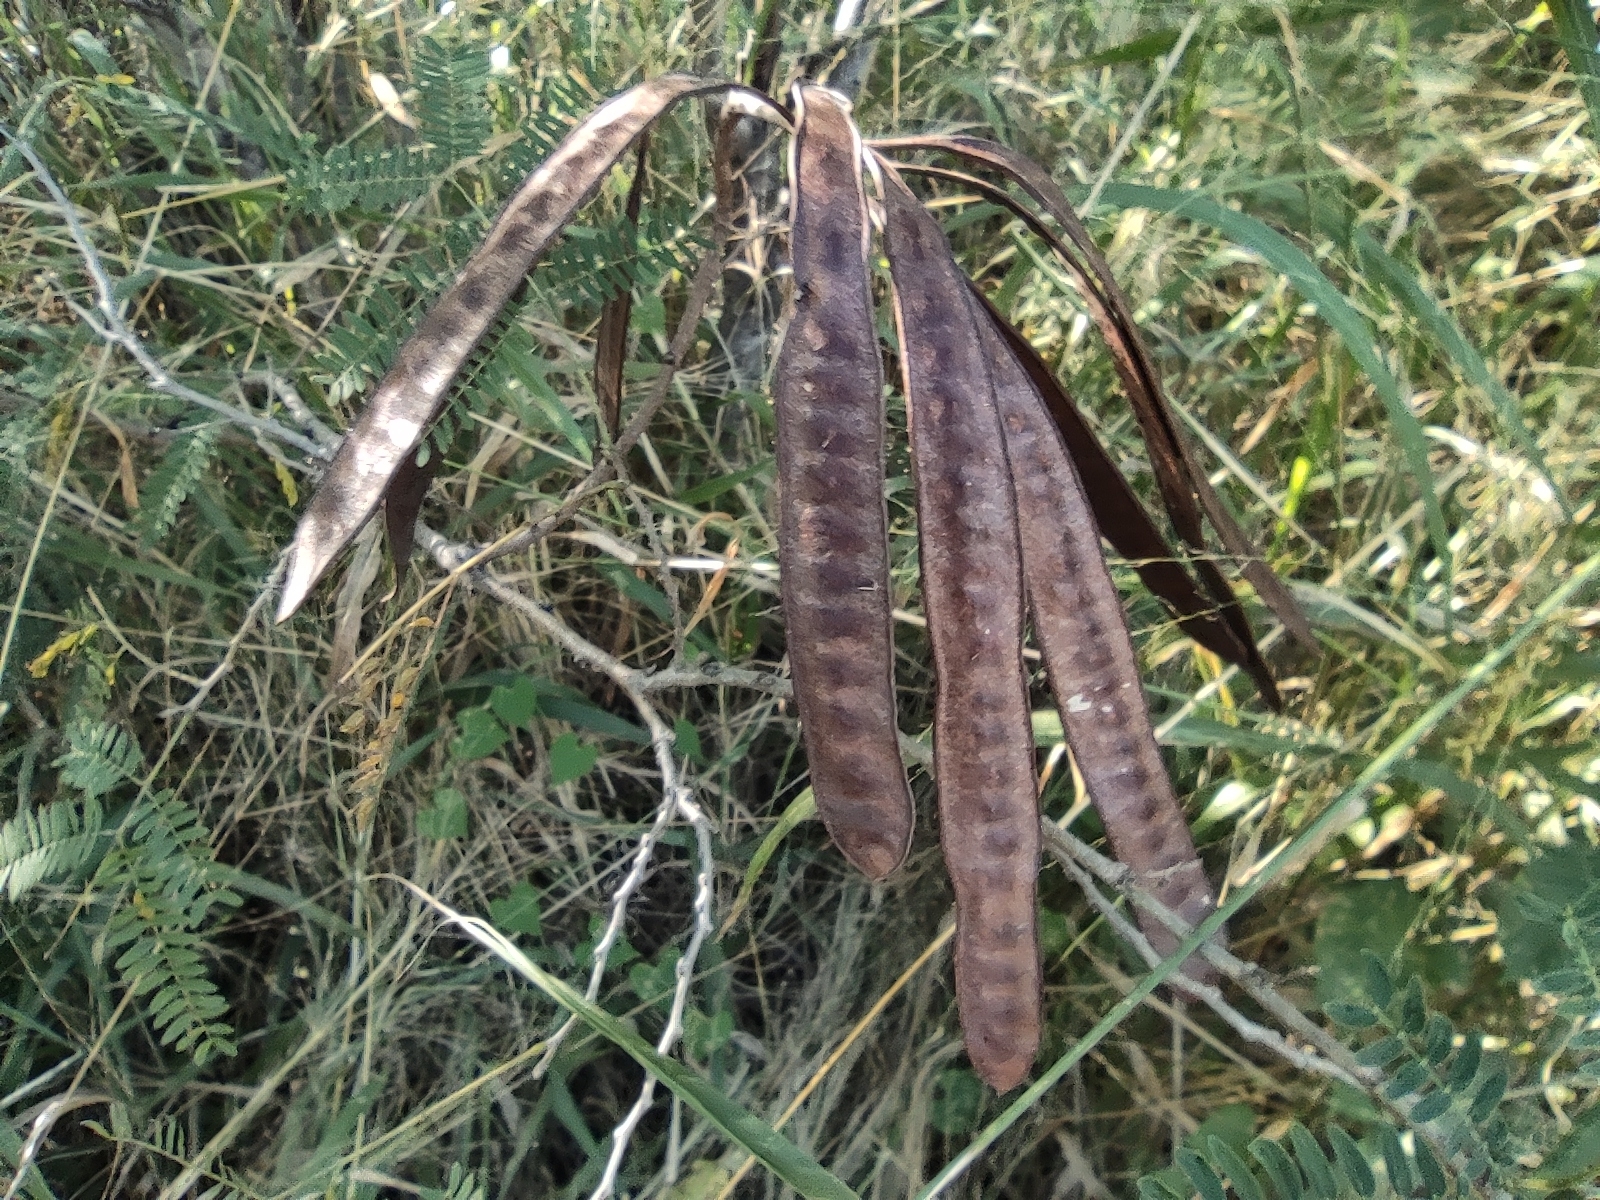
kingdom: Plantae
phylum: Tracheophyta
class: Magnoliopsida
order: Fabales
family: Fabaceae
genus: Leucaena
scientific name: Leucaena leucocephala
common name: White leadtree
